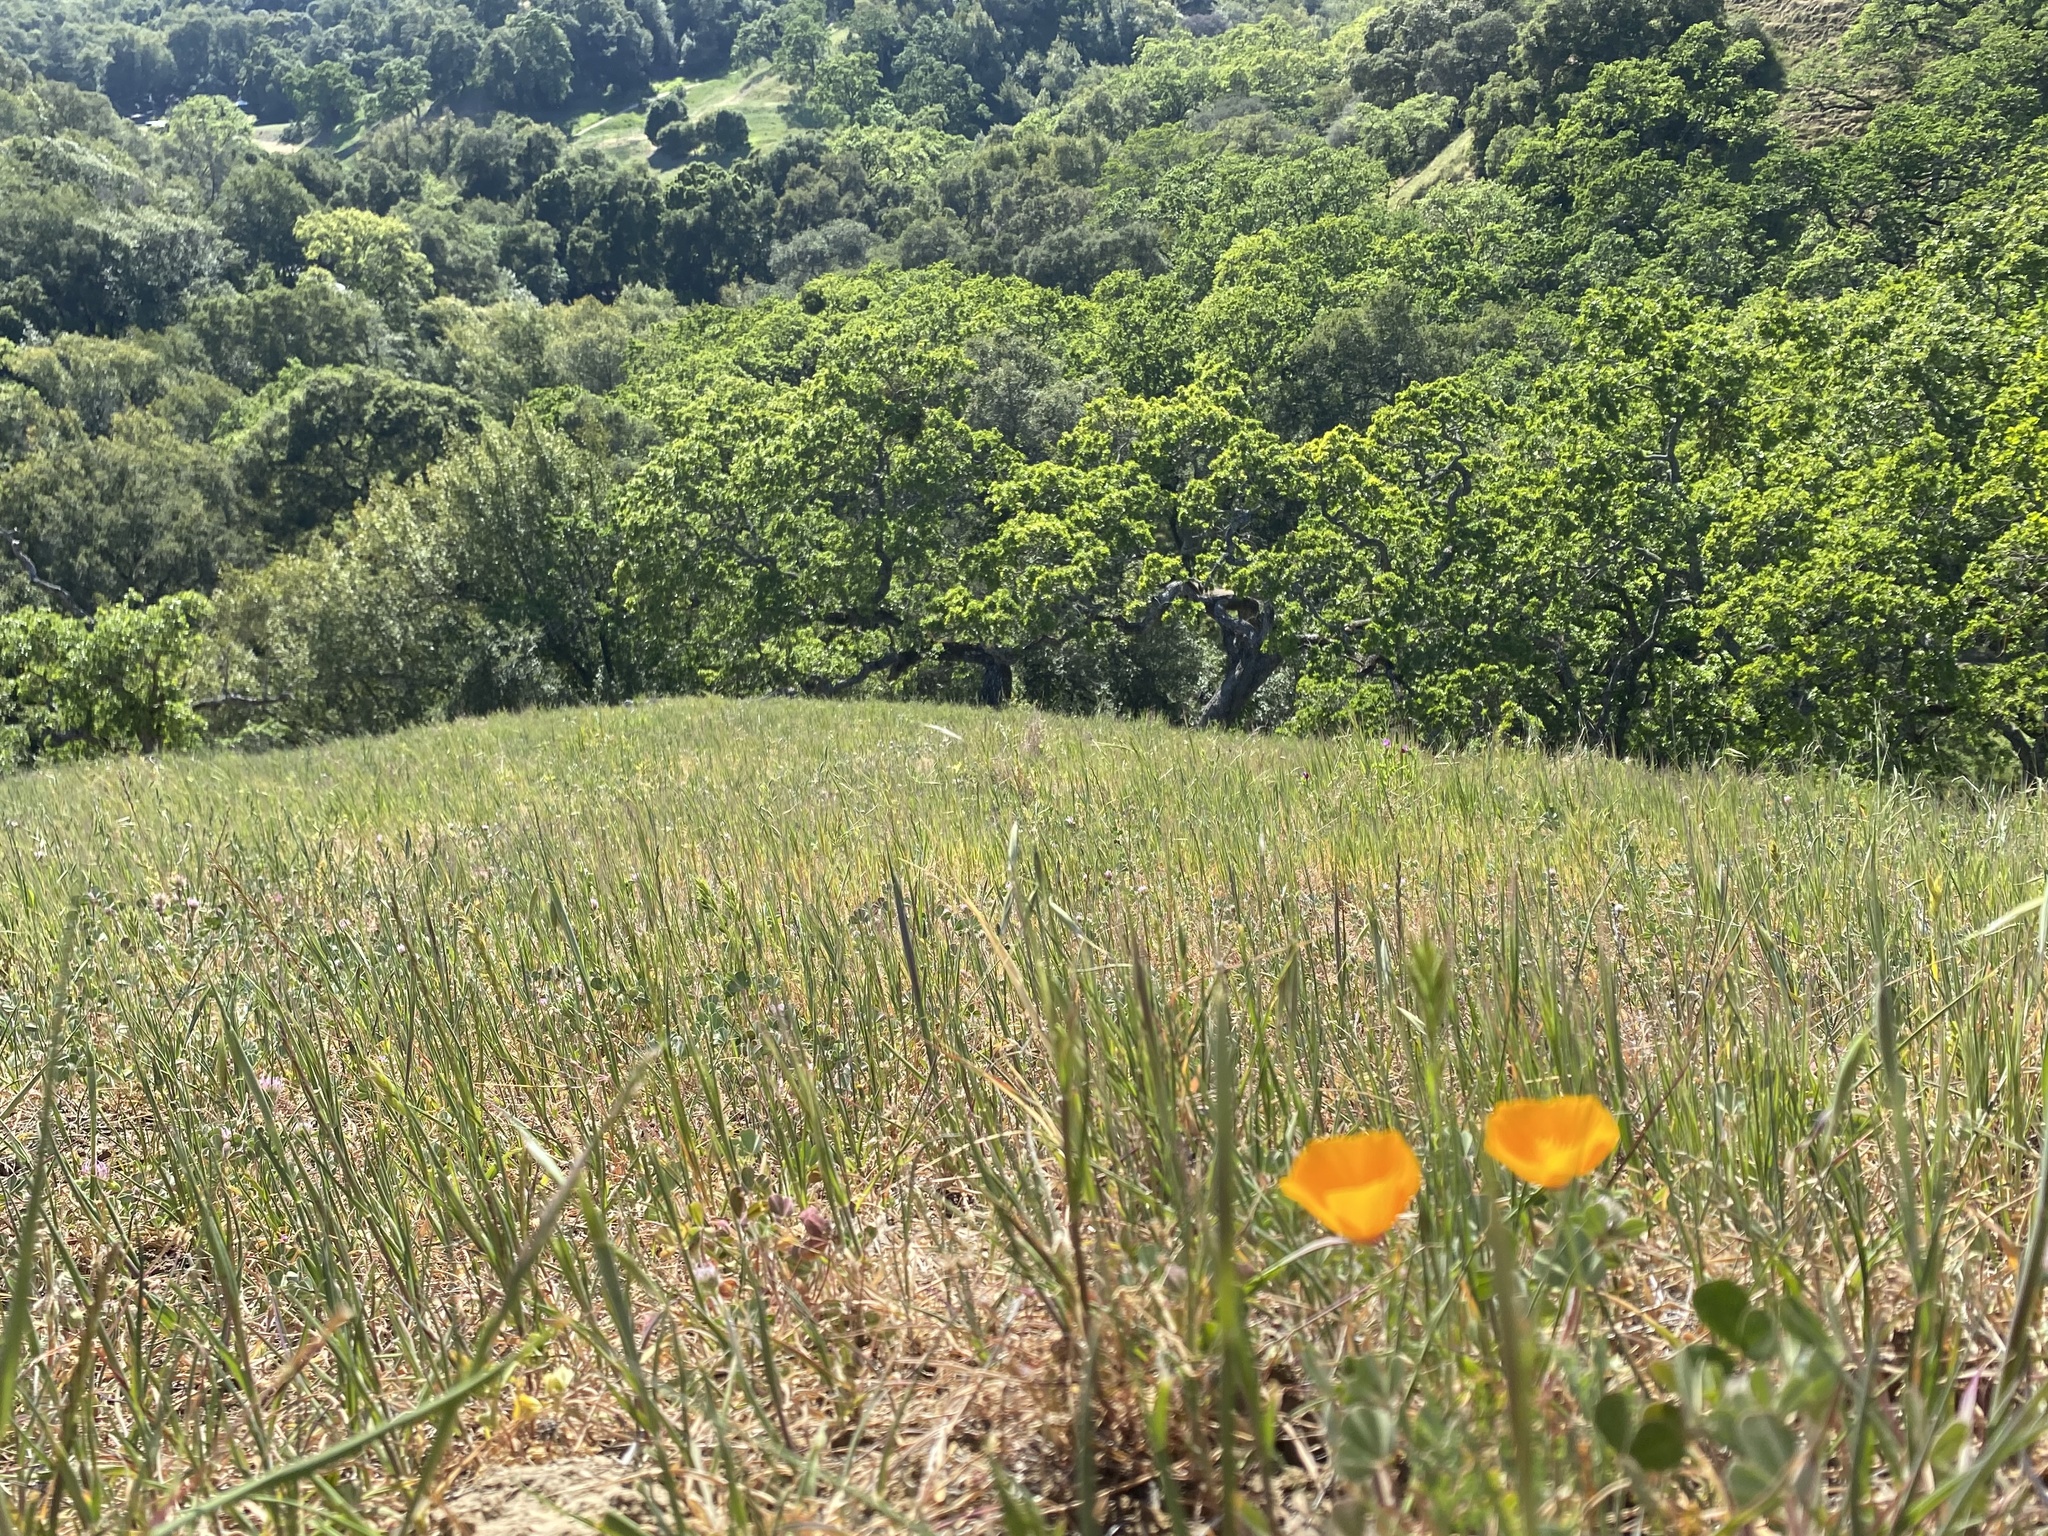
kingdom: Plantae
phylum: Tracheophyta
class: Magnoliopsida
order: Ranunculales
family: Papaveraceae
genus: Eschscholzia
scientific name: Eschscholzia californica
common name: California poppy
